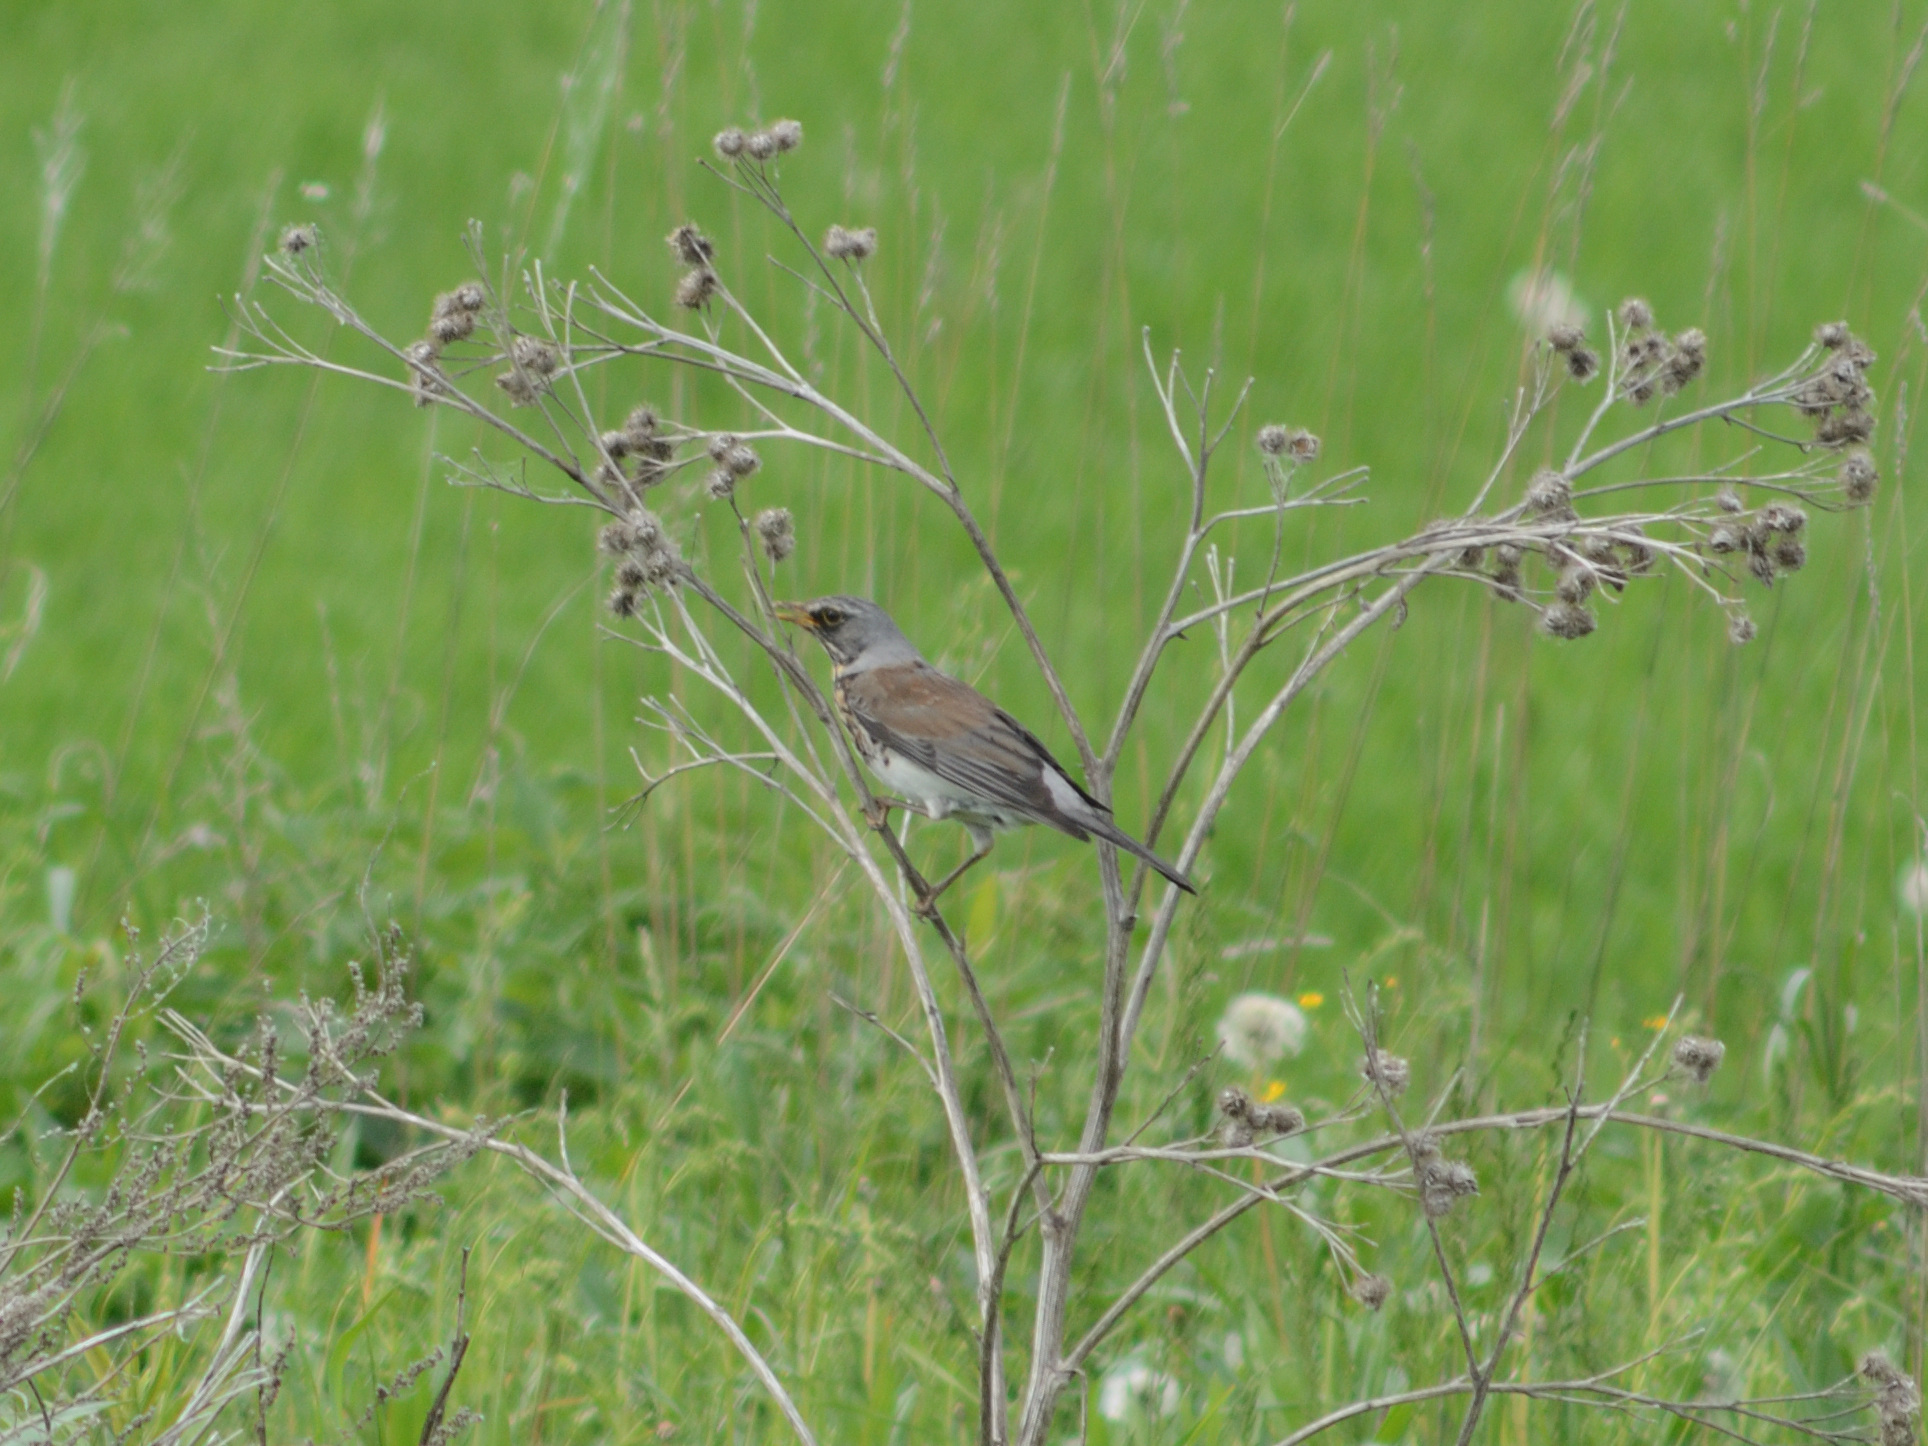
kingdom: Animalia
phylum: Chordata
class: Aves
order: Passeriformes
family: Turdidae
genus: Turdus
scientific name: Turdus pilaris
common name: Fieldfare
